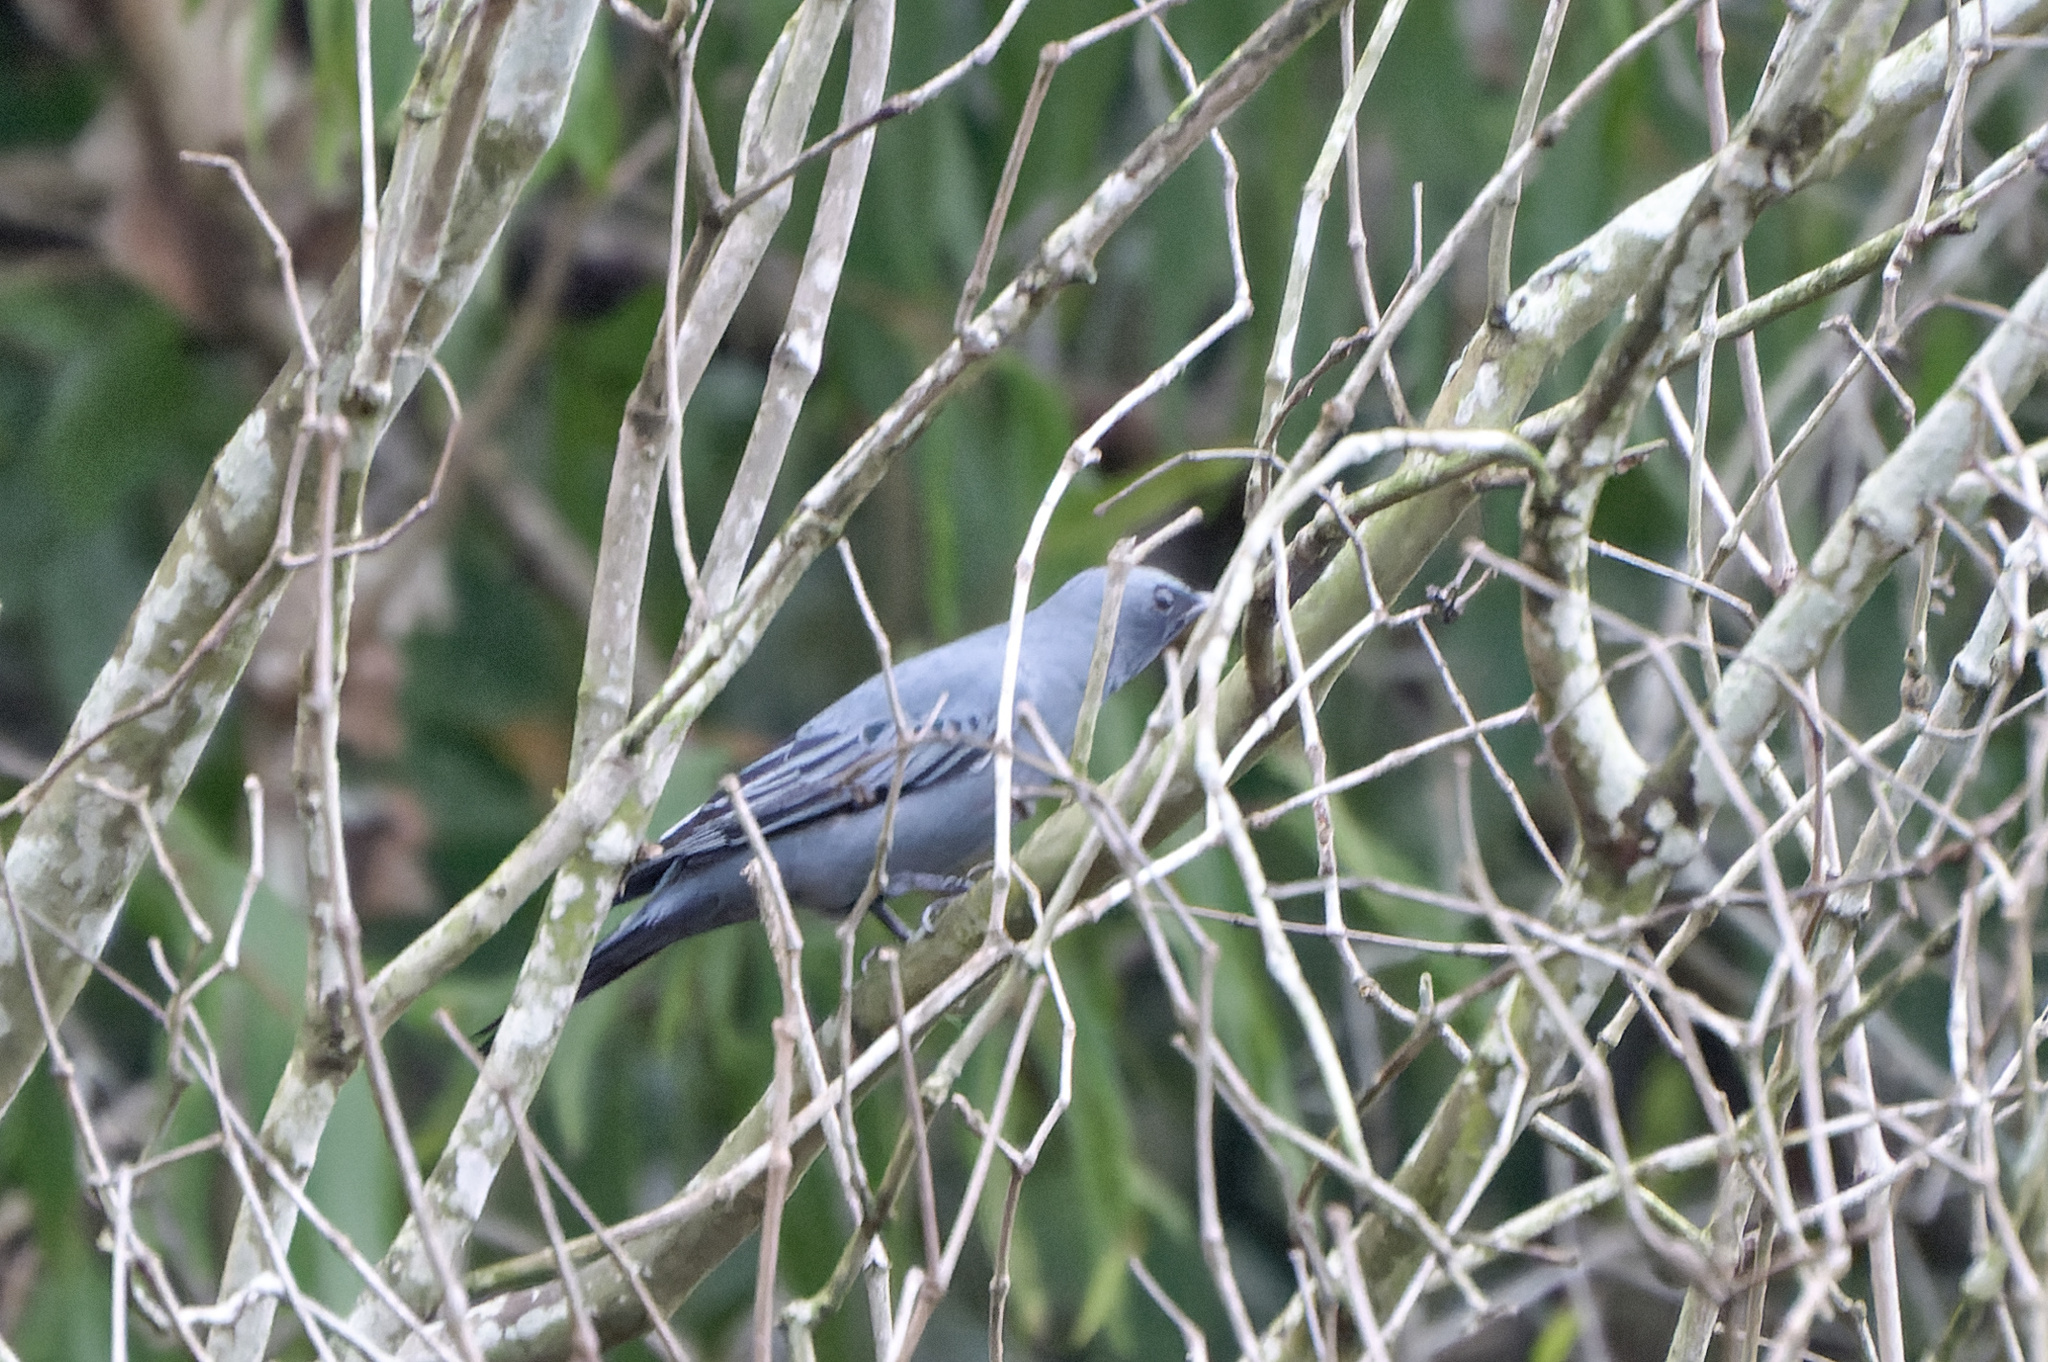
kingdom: Animalia
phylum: Chordata
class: Aves
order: Passeriformes
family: Campephagidae
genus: Edolisoma
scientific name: Edolisoma tenuirostre
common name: Common cicadabird
